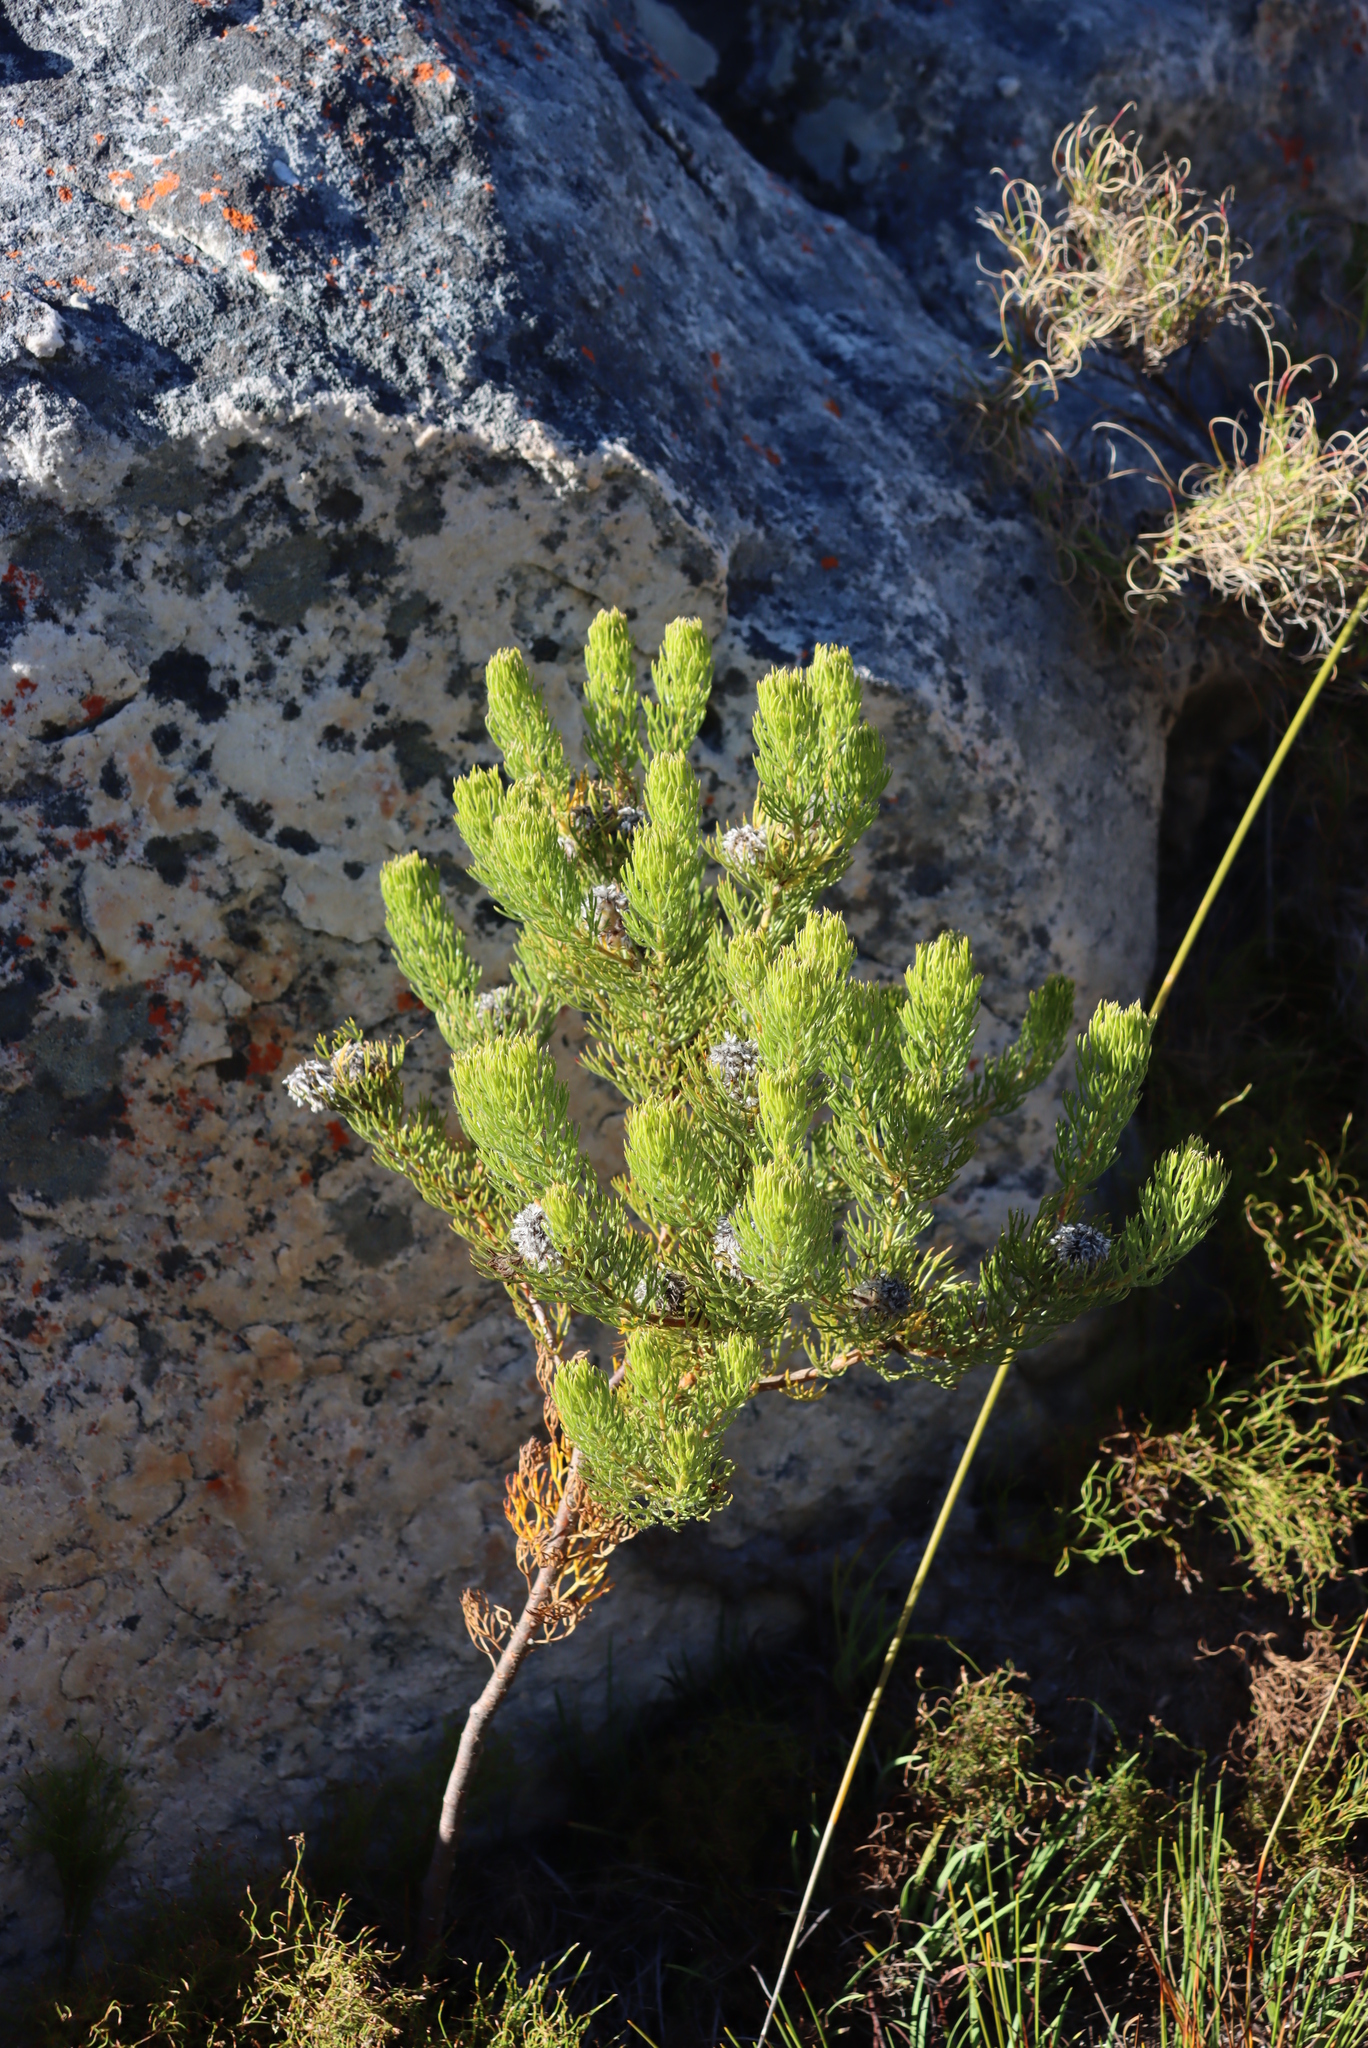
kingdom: Plantae
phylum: Tracheophyta
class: Magnoliopsida
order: Proteales
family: Proteaceae
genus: Serruria
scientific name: Serruria villosa
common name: Golden spiderhead
